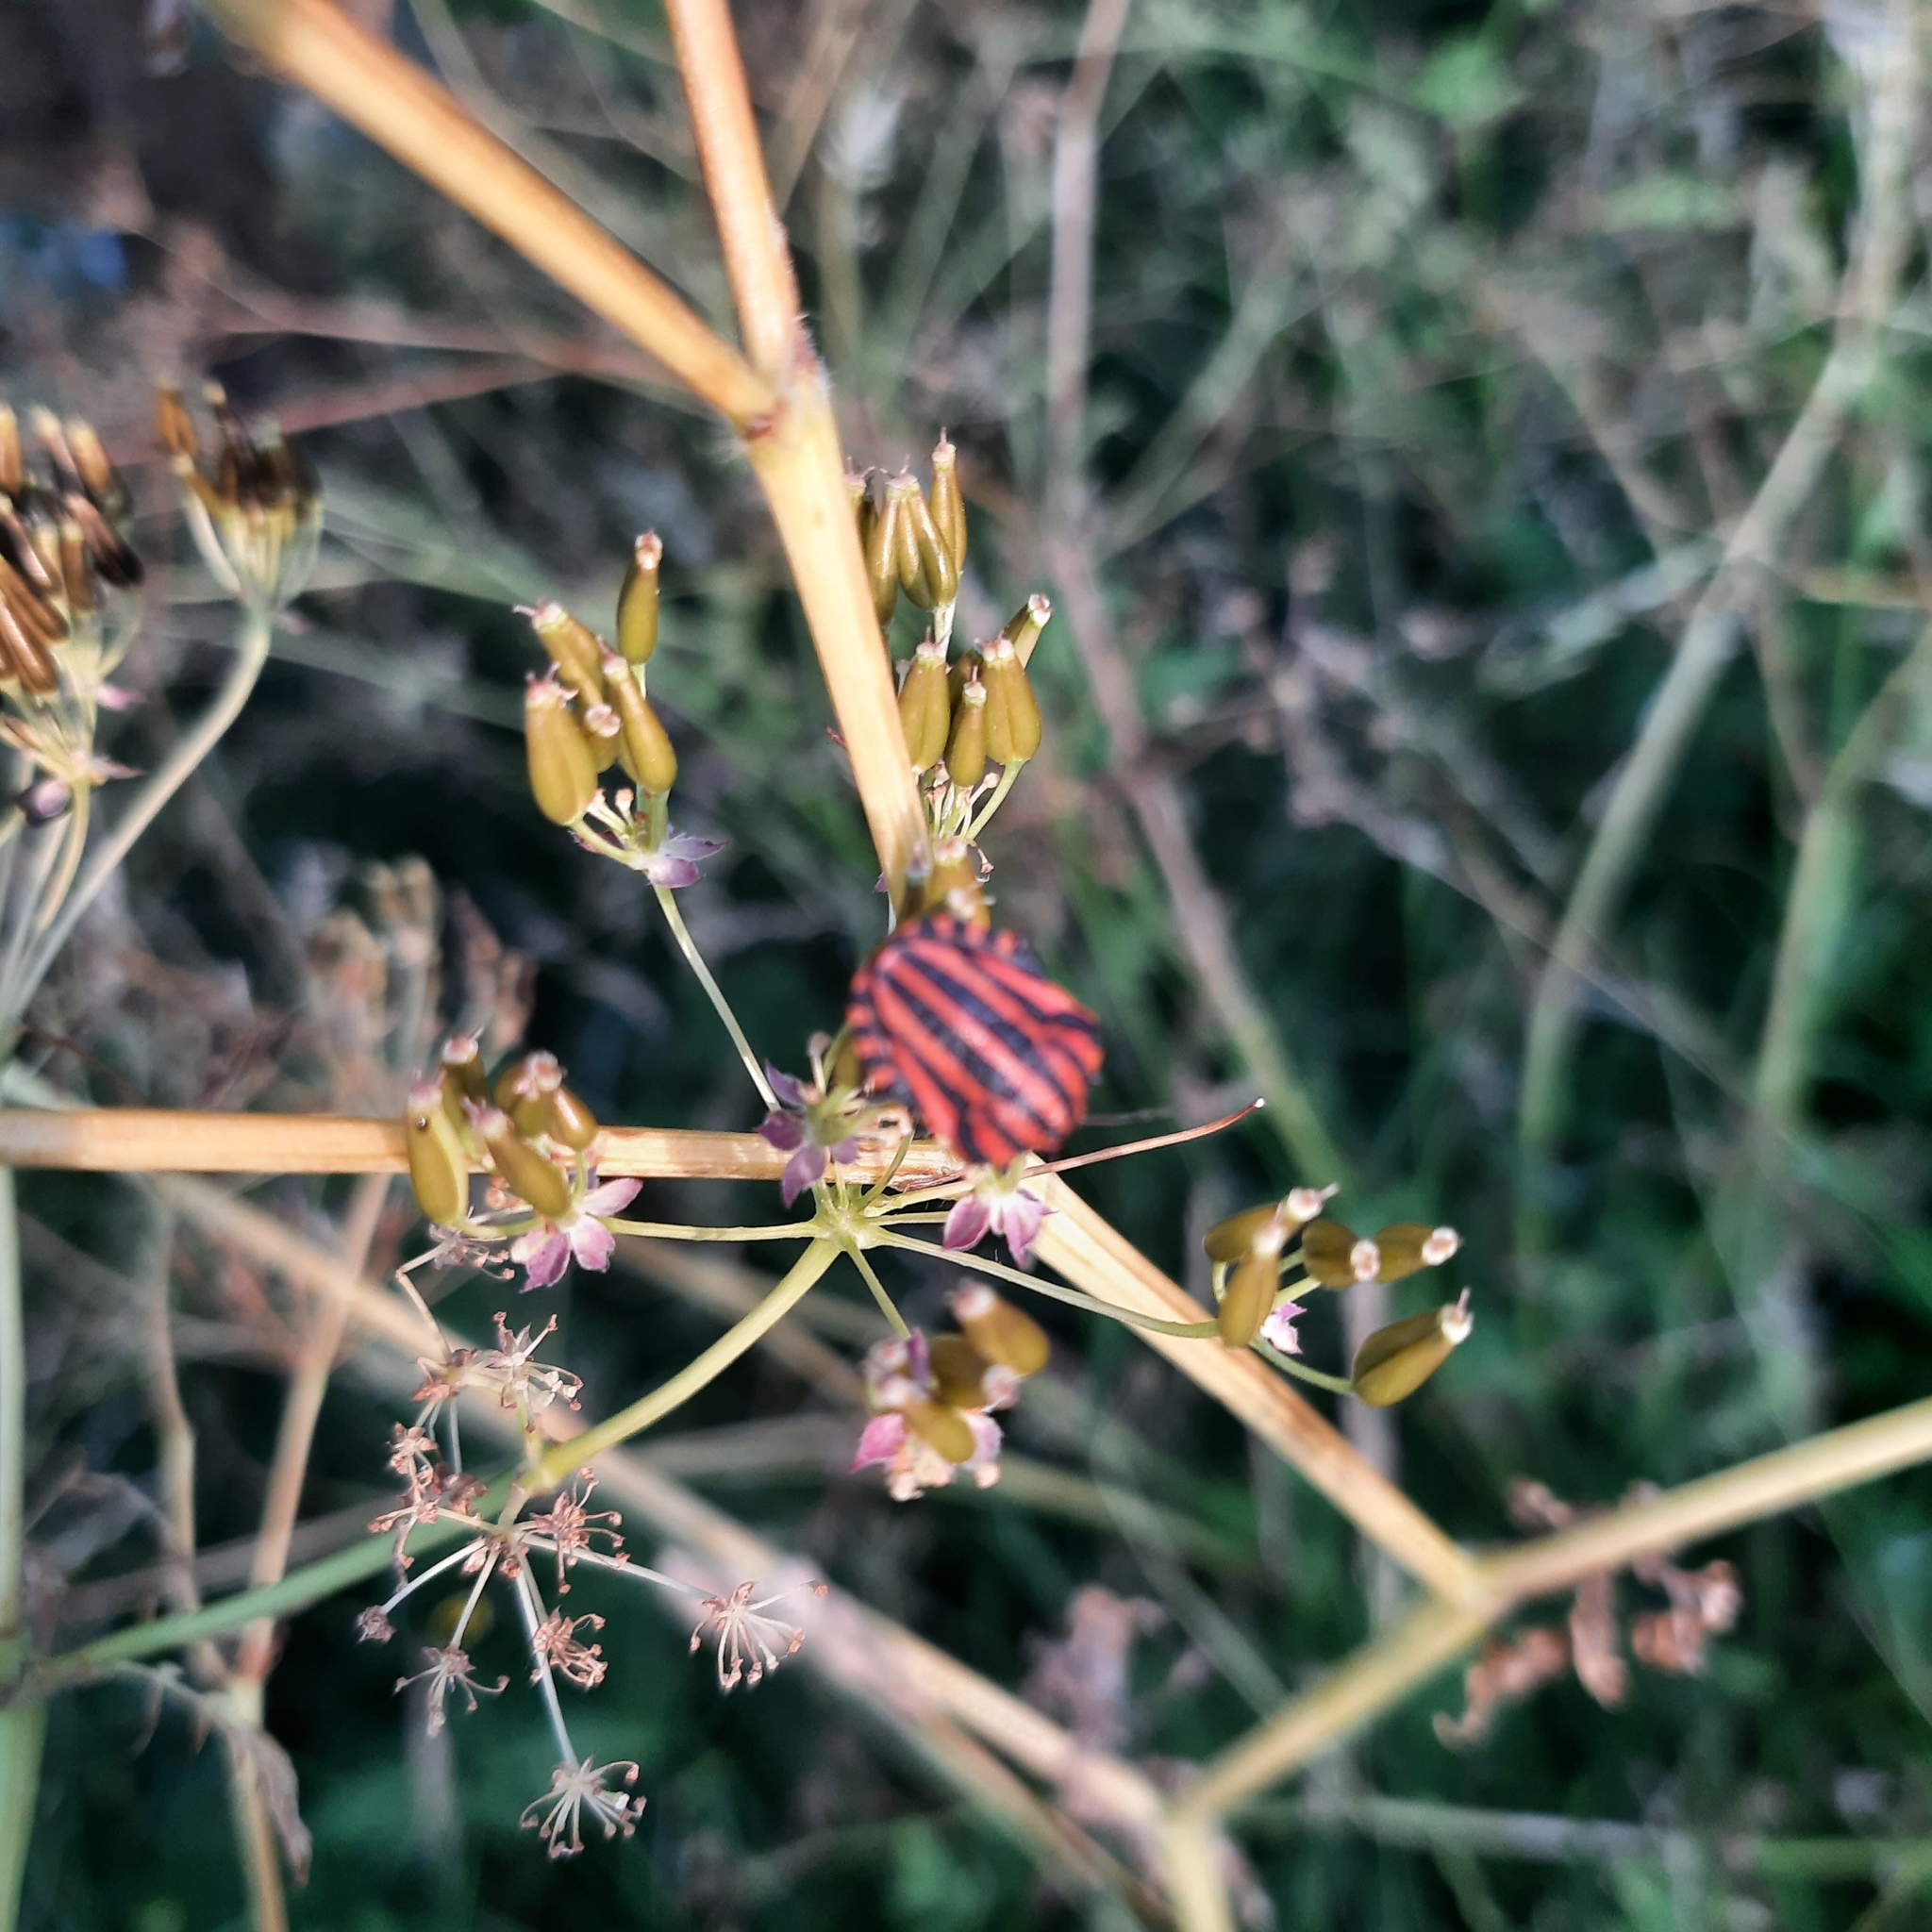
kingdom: Animalia
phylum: Arthropoda
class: Insecta
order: Hemiptera
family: Pentatomidae
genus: Graphosoma
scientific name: Graphosoma italicum
